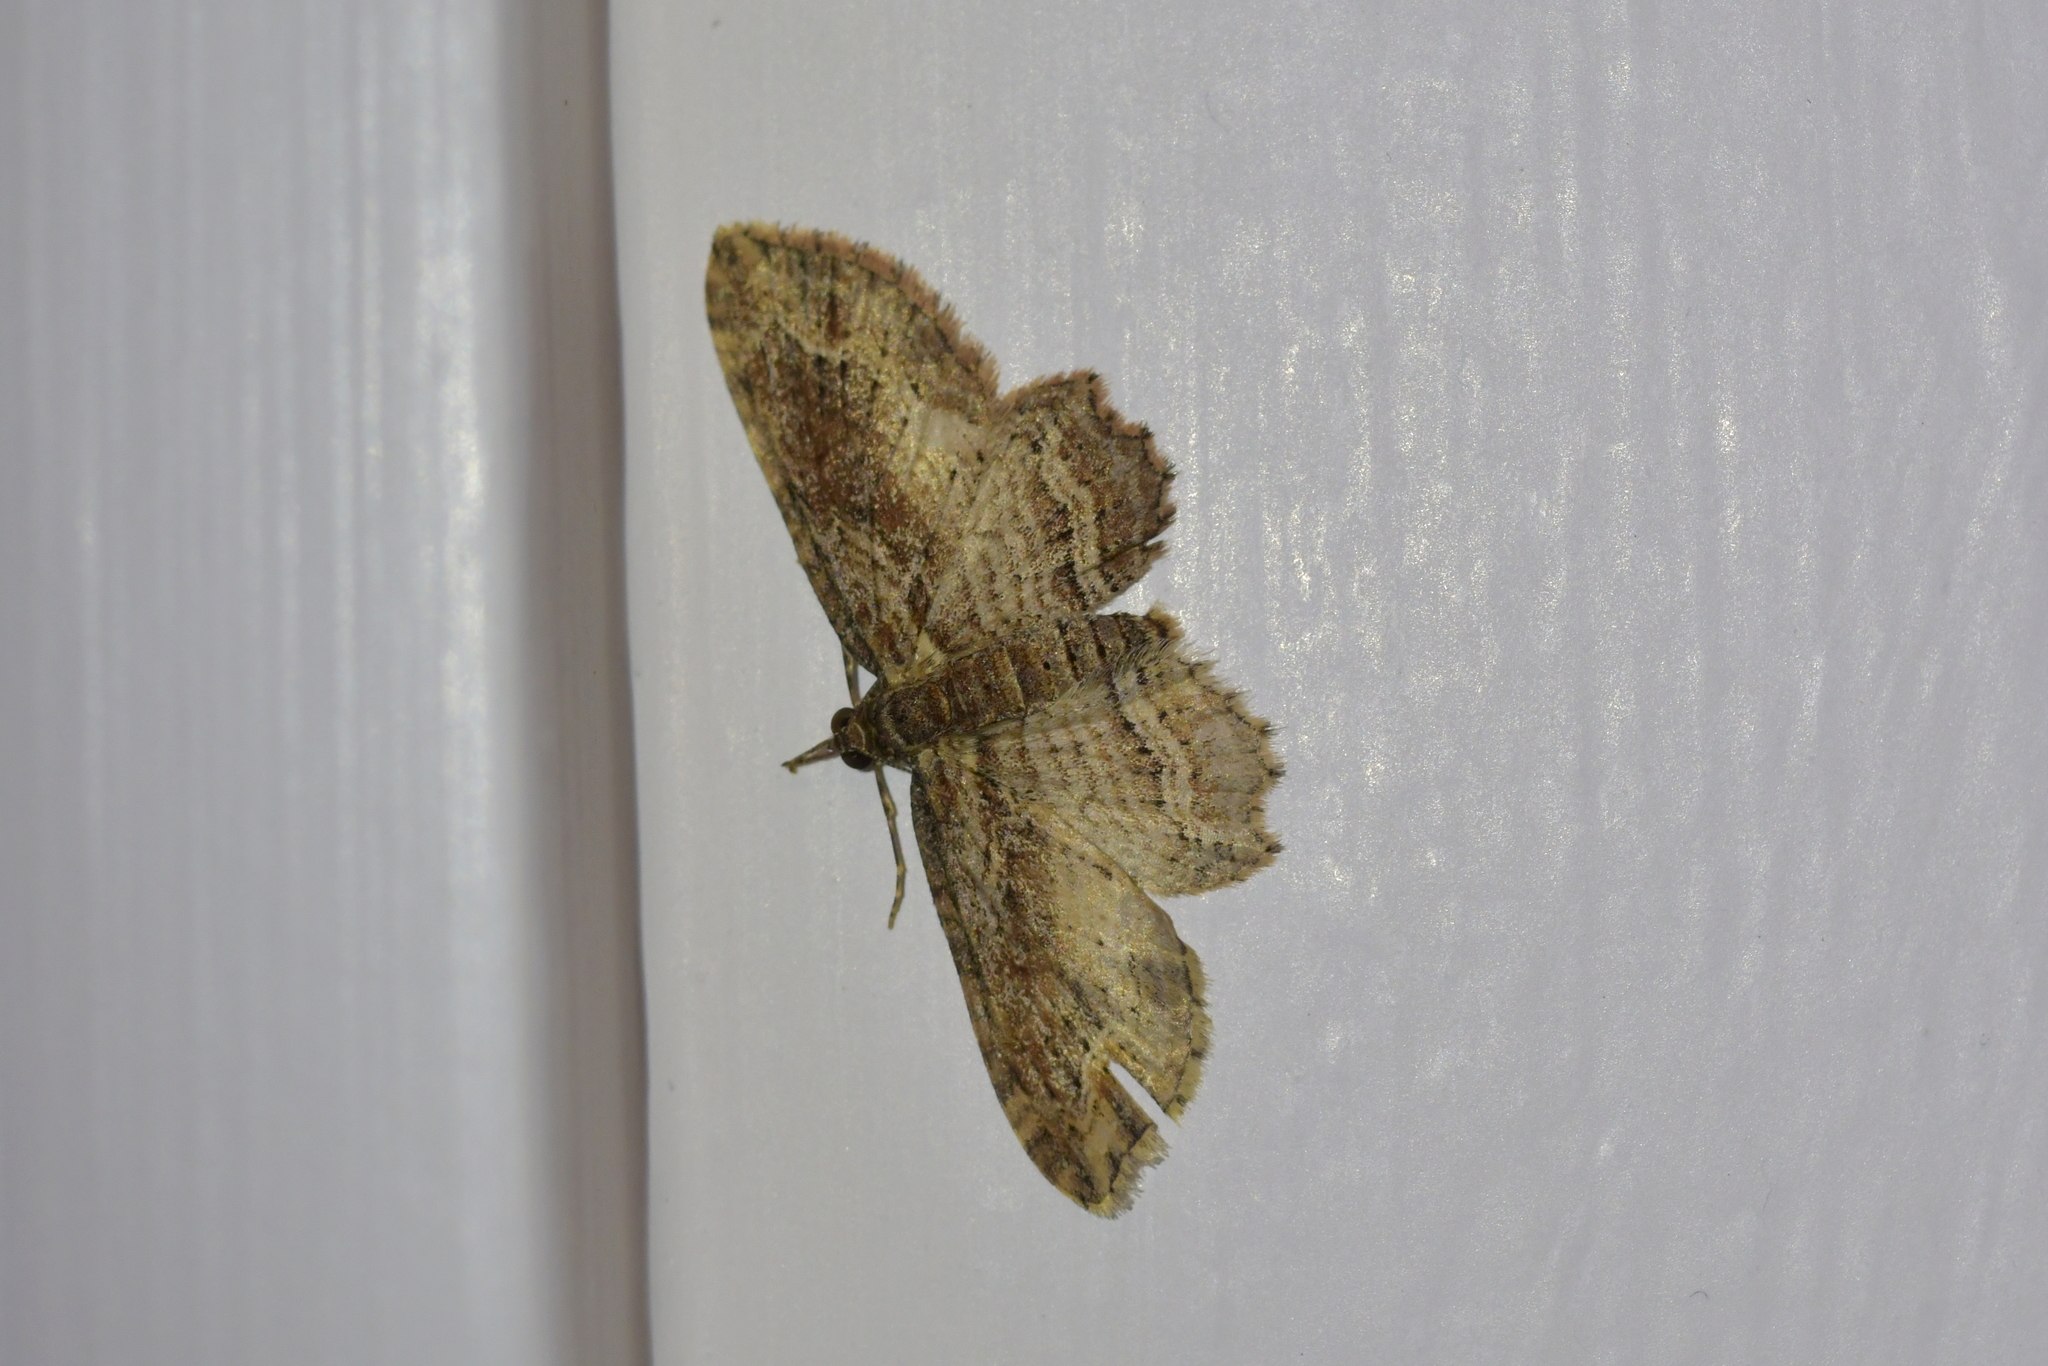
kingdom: Animalia
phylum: Arthropoda
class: Insecta
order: Lepidoptera
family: Geometridae
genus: Chloroclystis
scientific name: Chloroclystis filata
